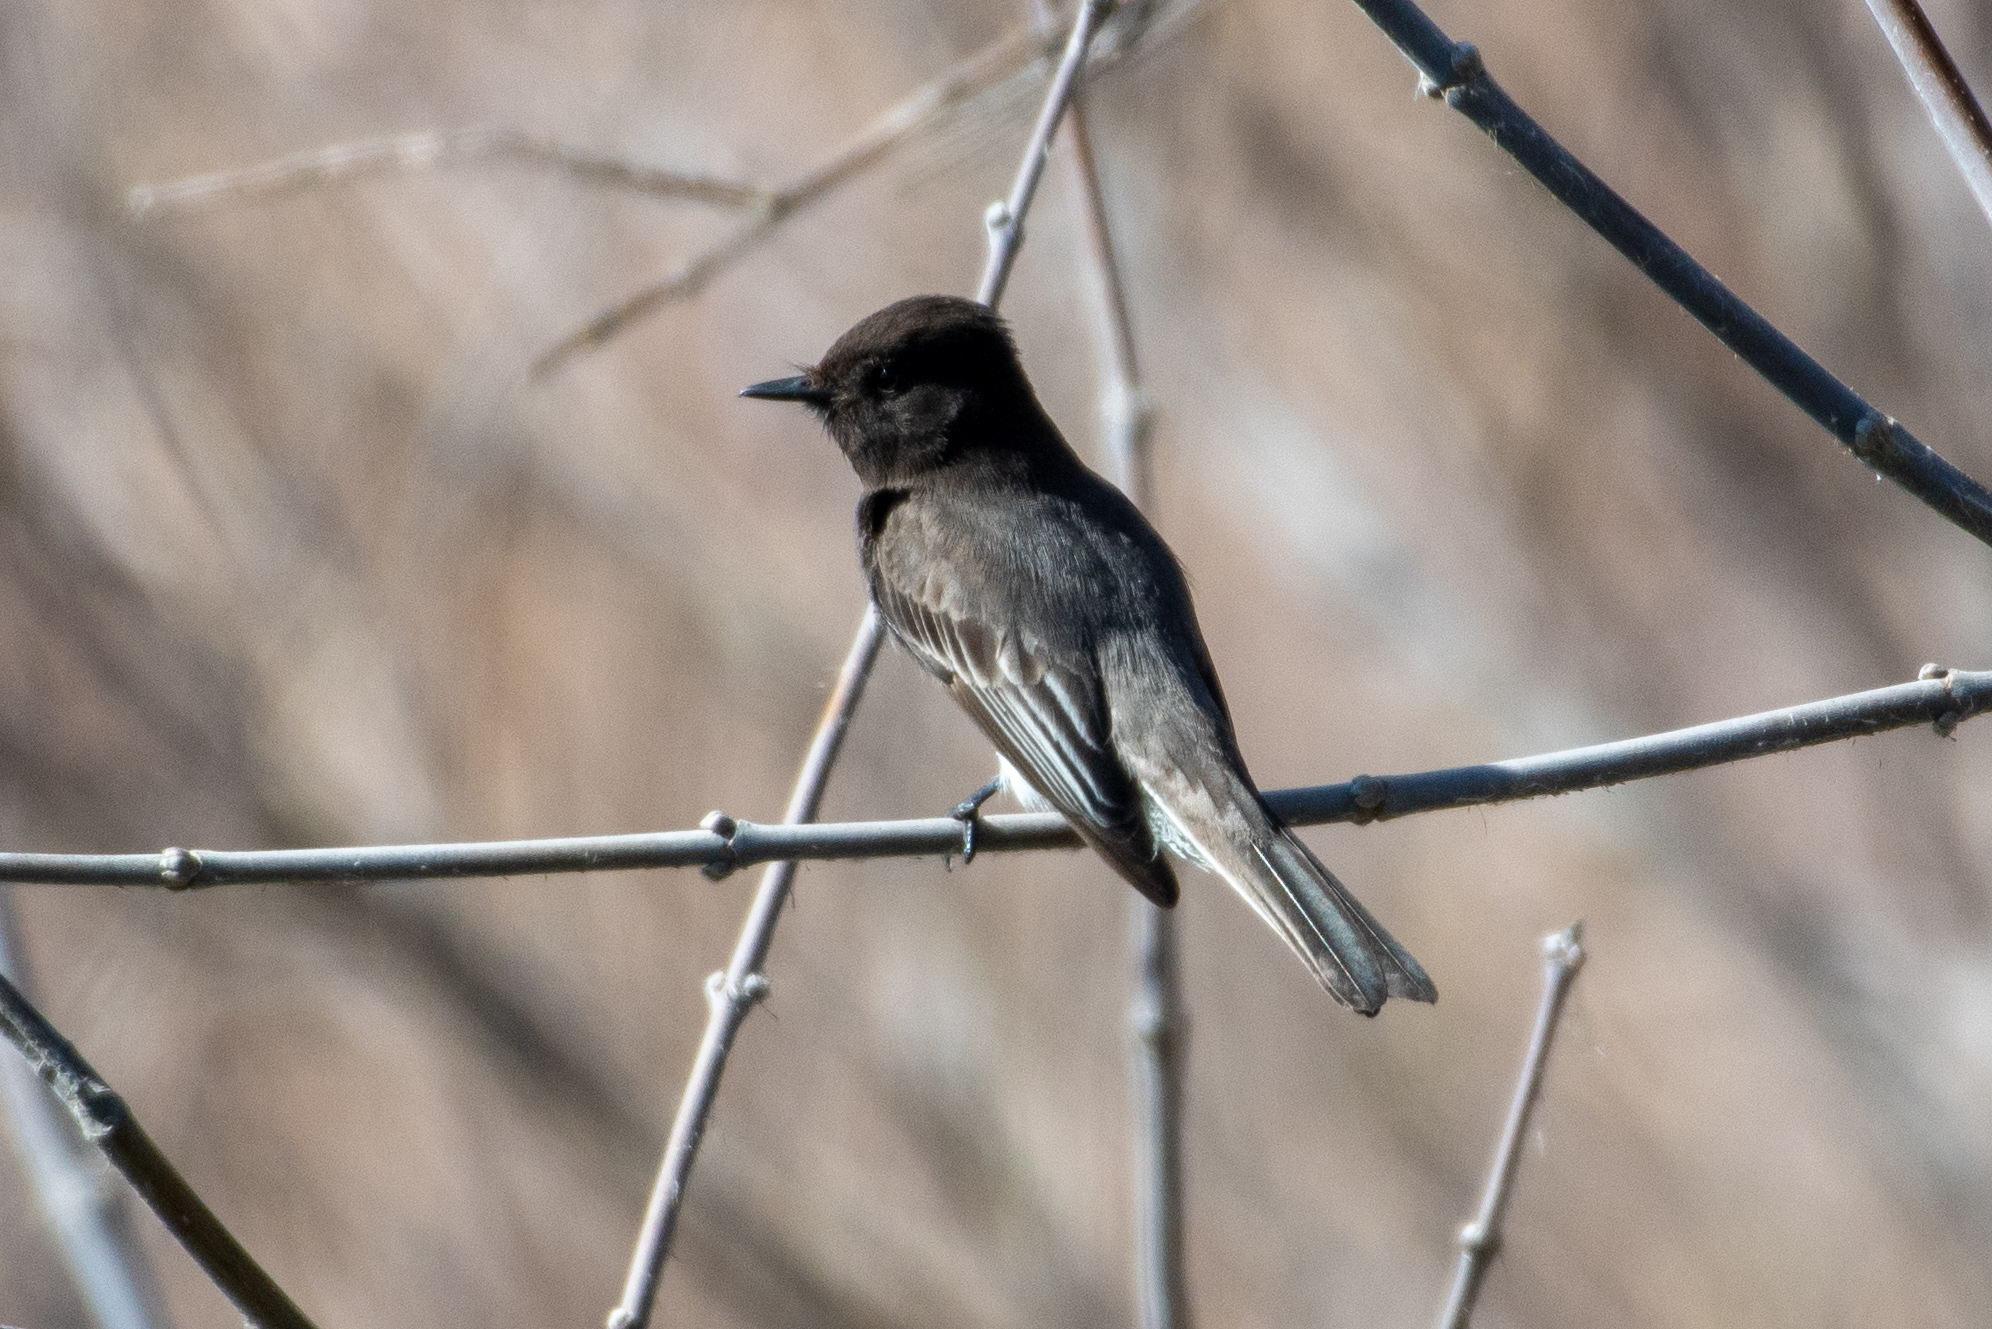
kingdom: Animalia
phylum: Chordata
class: Aves
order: Passeriformes
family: Tyrannidae
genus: Sayornis
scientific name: Sayornis nigricans
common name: Black phoebe
